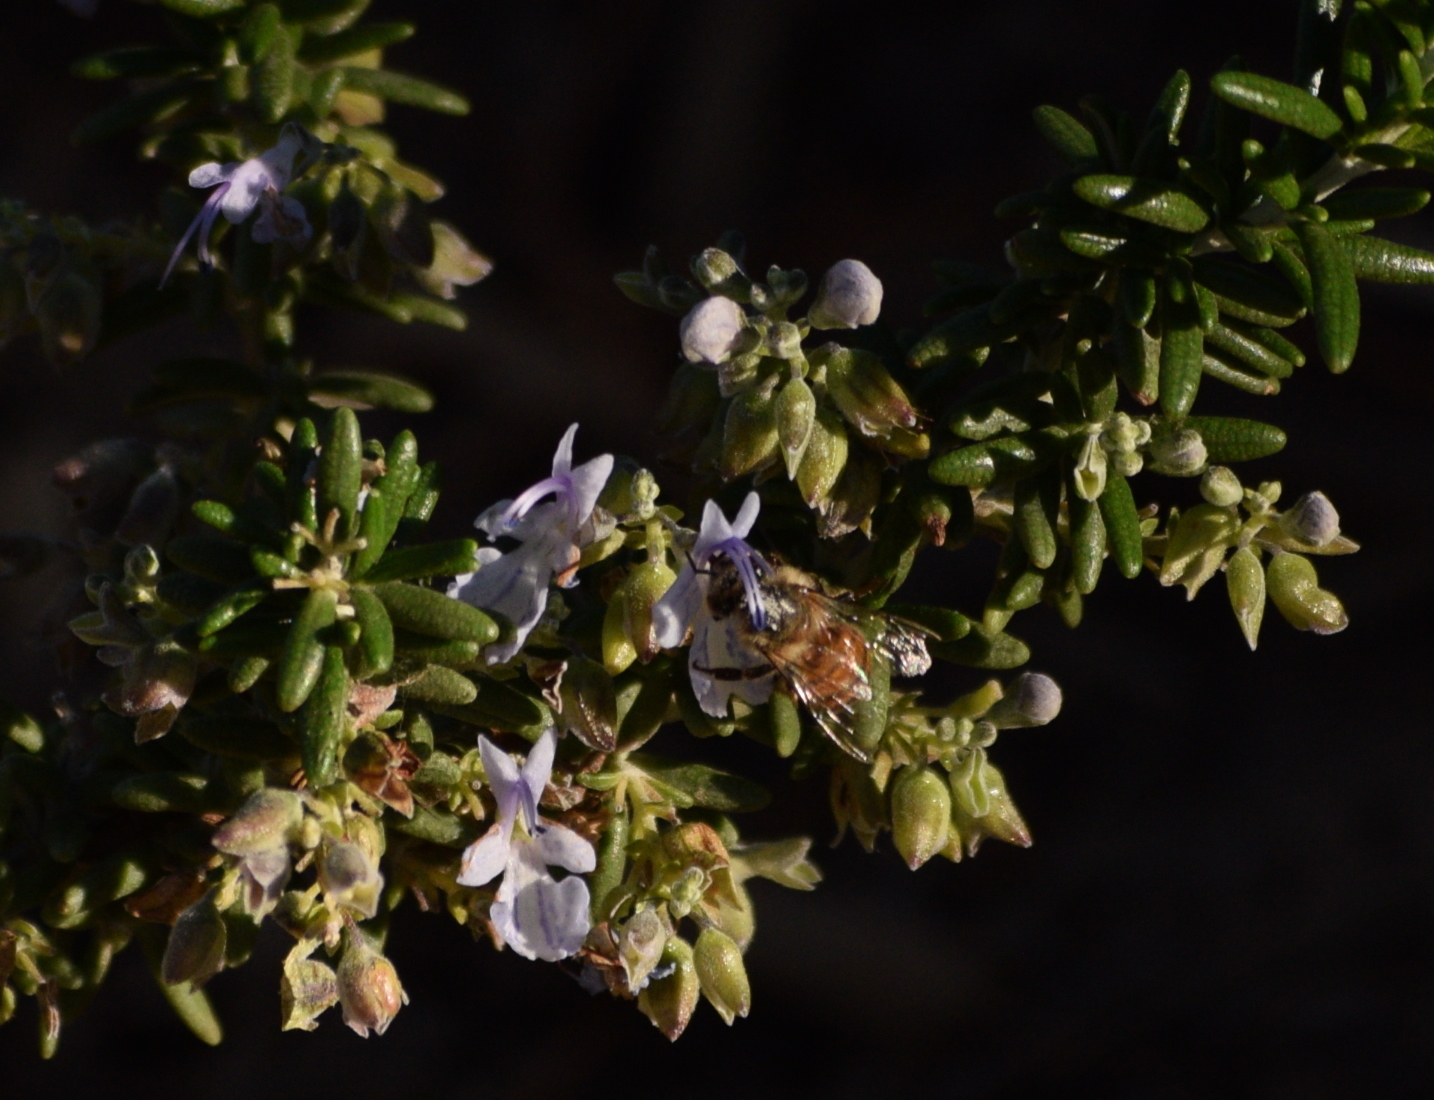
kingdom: Animalia
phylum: Arthropoda
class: Insecta
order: Hymenoptera
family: Apidae
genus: Apis
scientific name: Apis mellifera
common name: Honey bee
